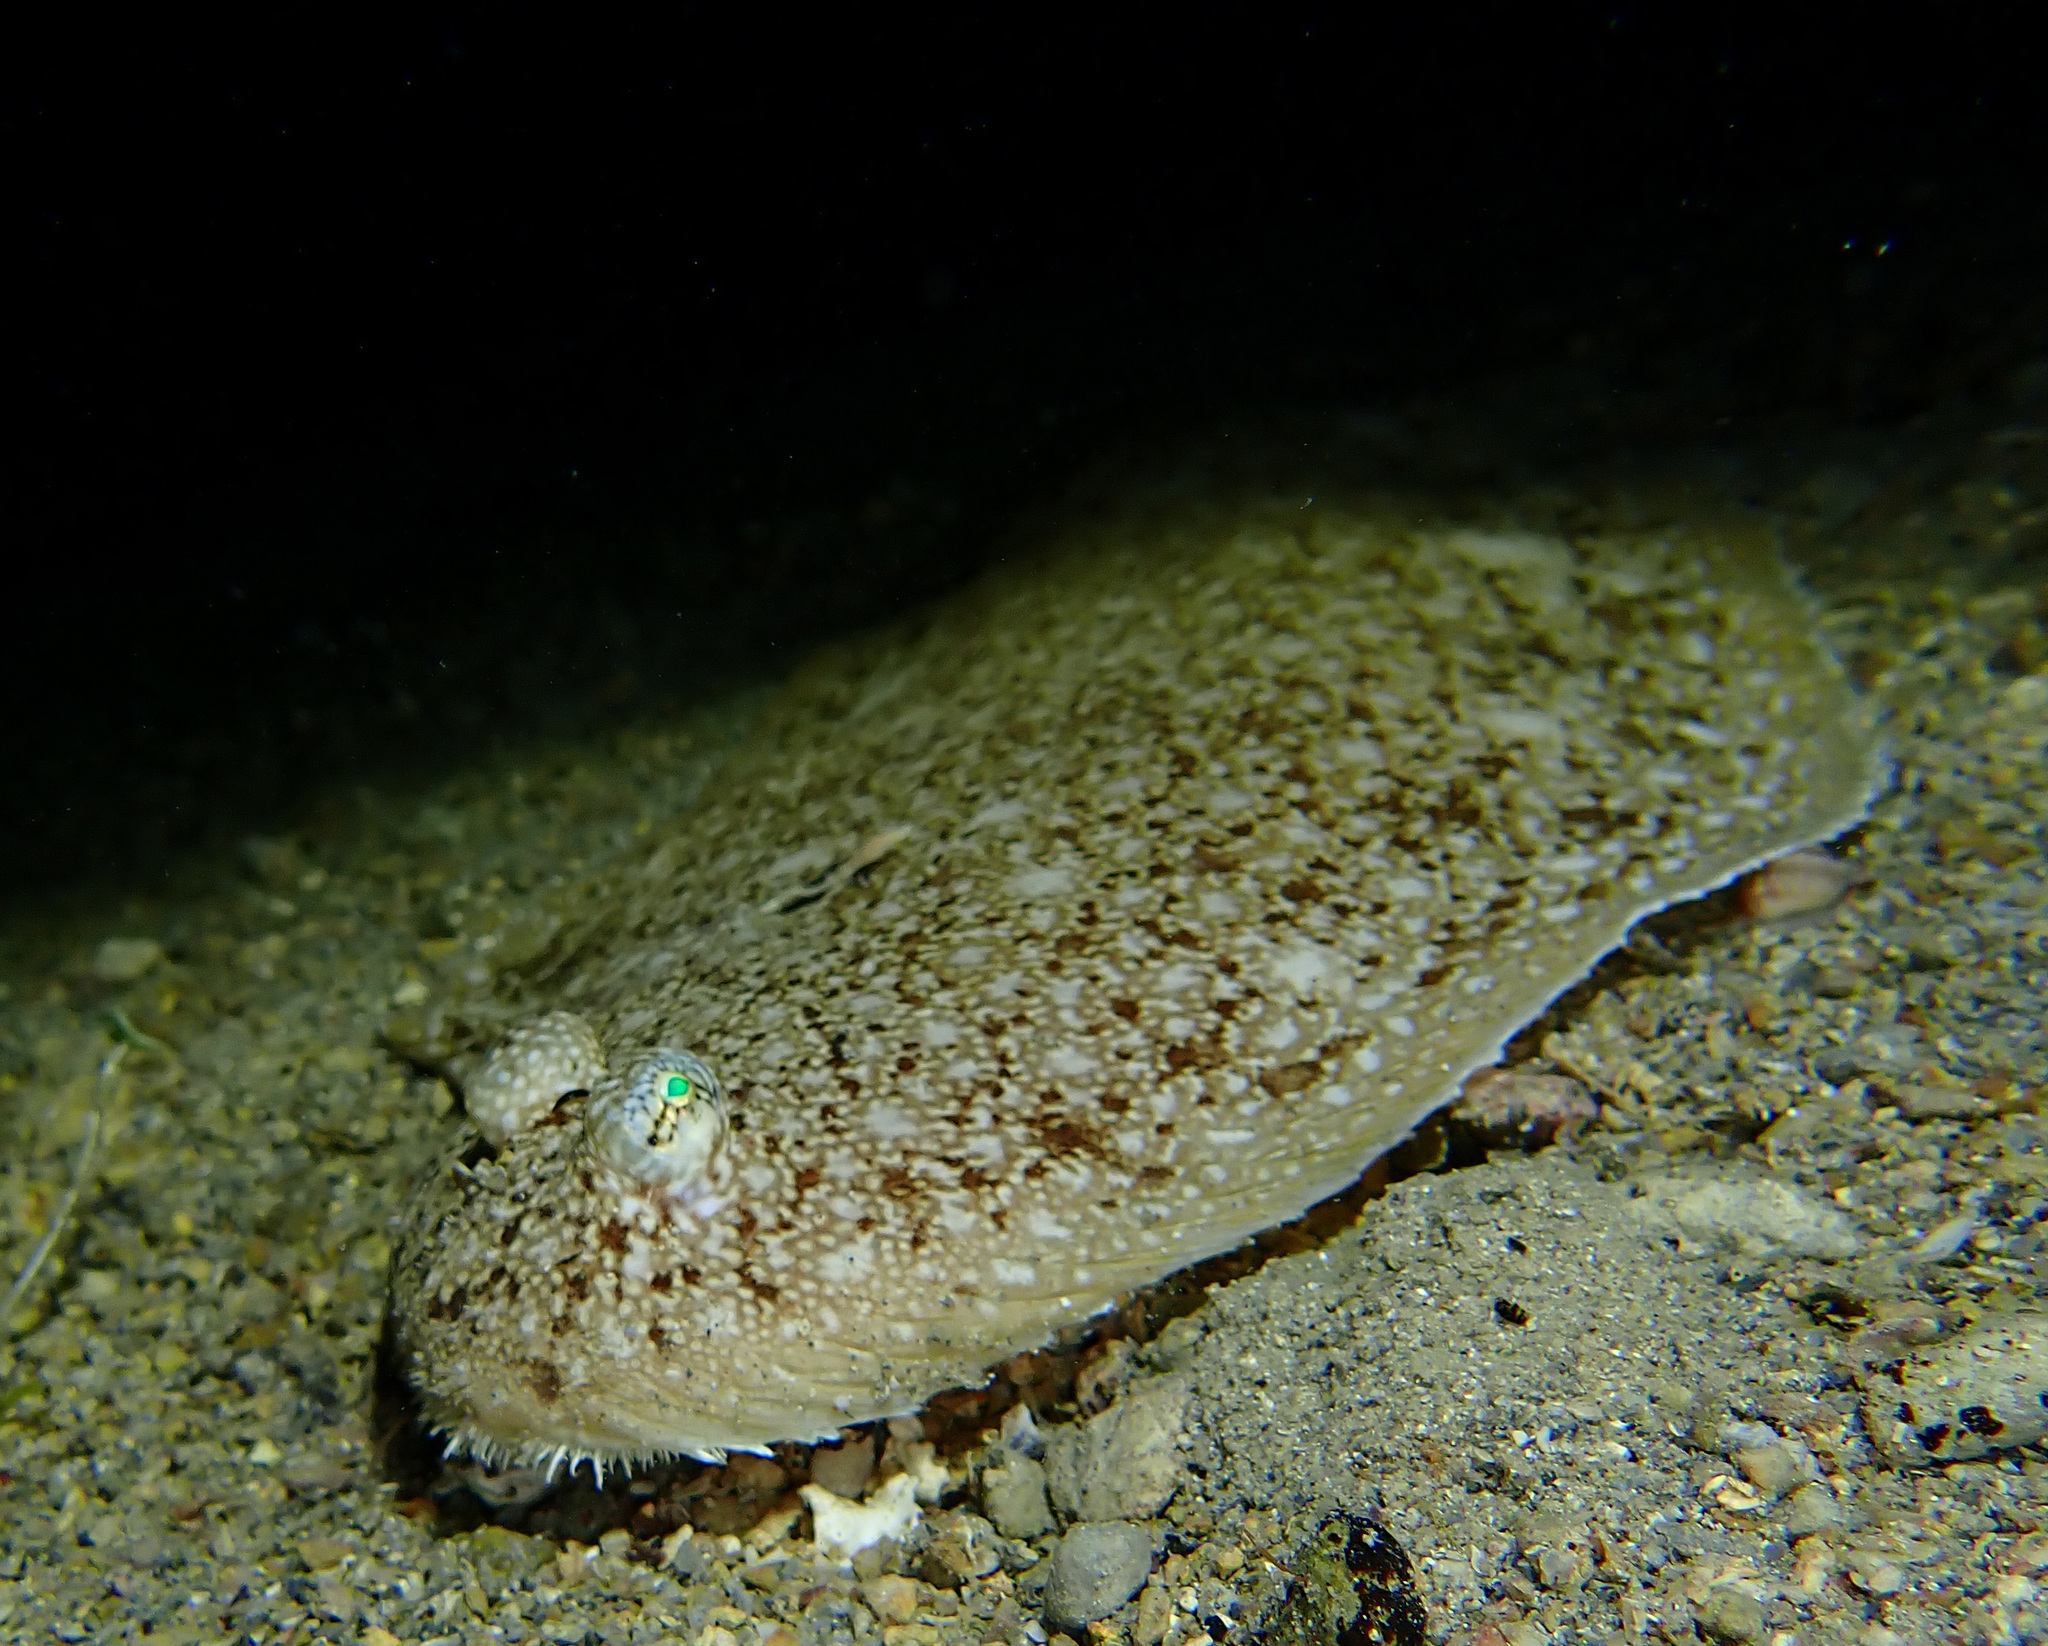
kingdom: Animalia
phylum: Chordata
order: Pleuronectiformes
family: Soleidae
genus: Synapturichthys
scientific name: Synapturichthys kleinii
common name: Klein's sole
